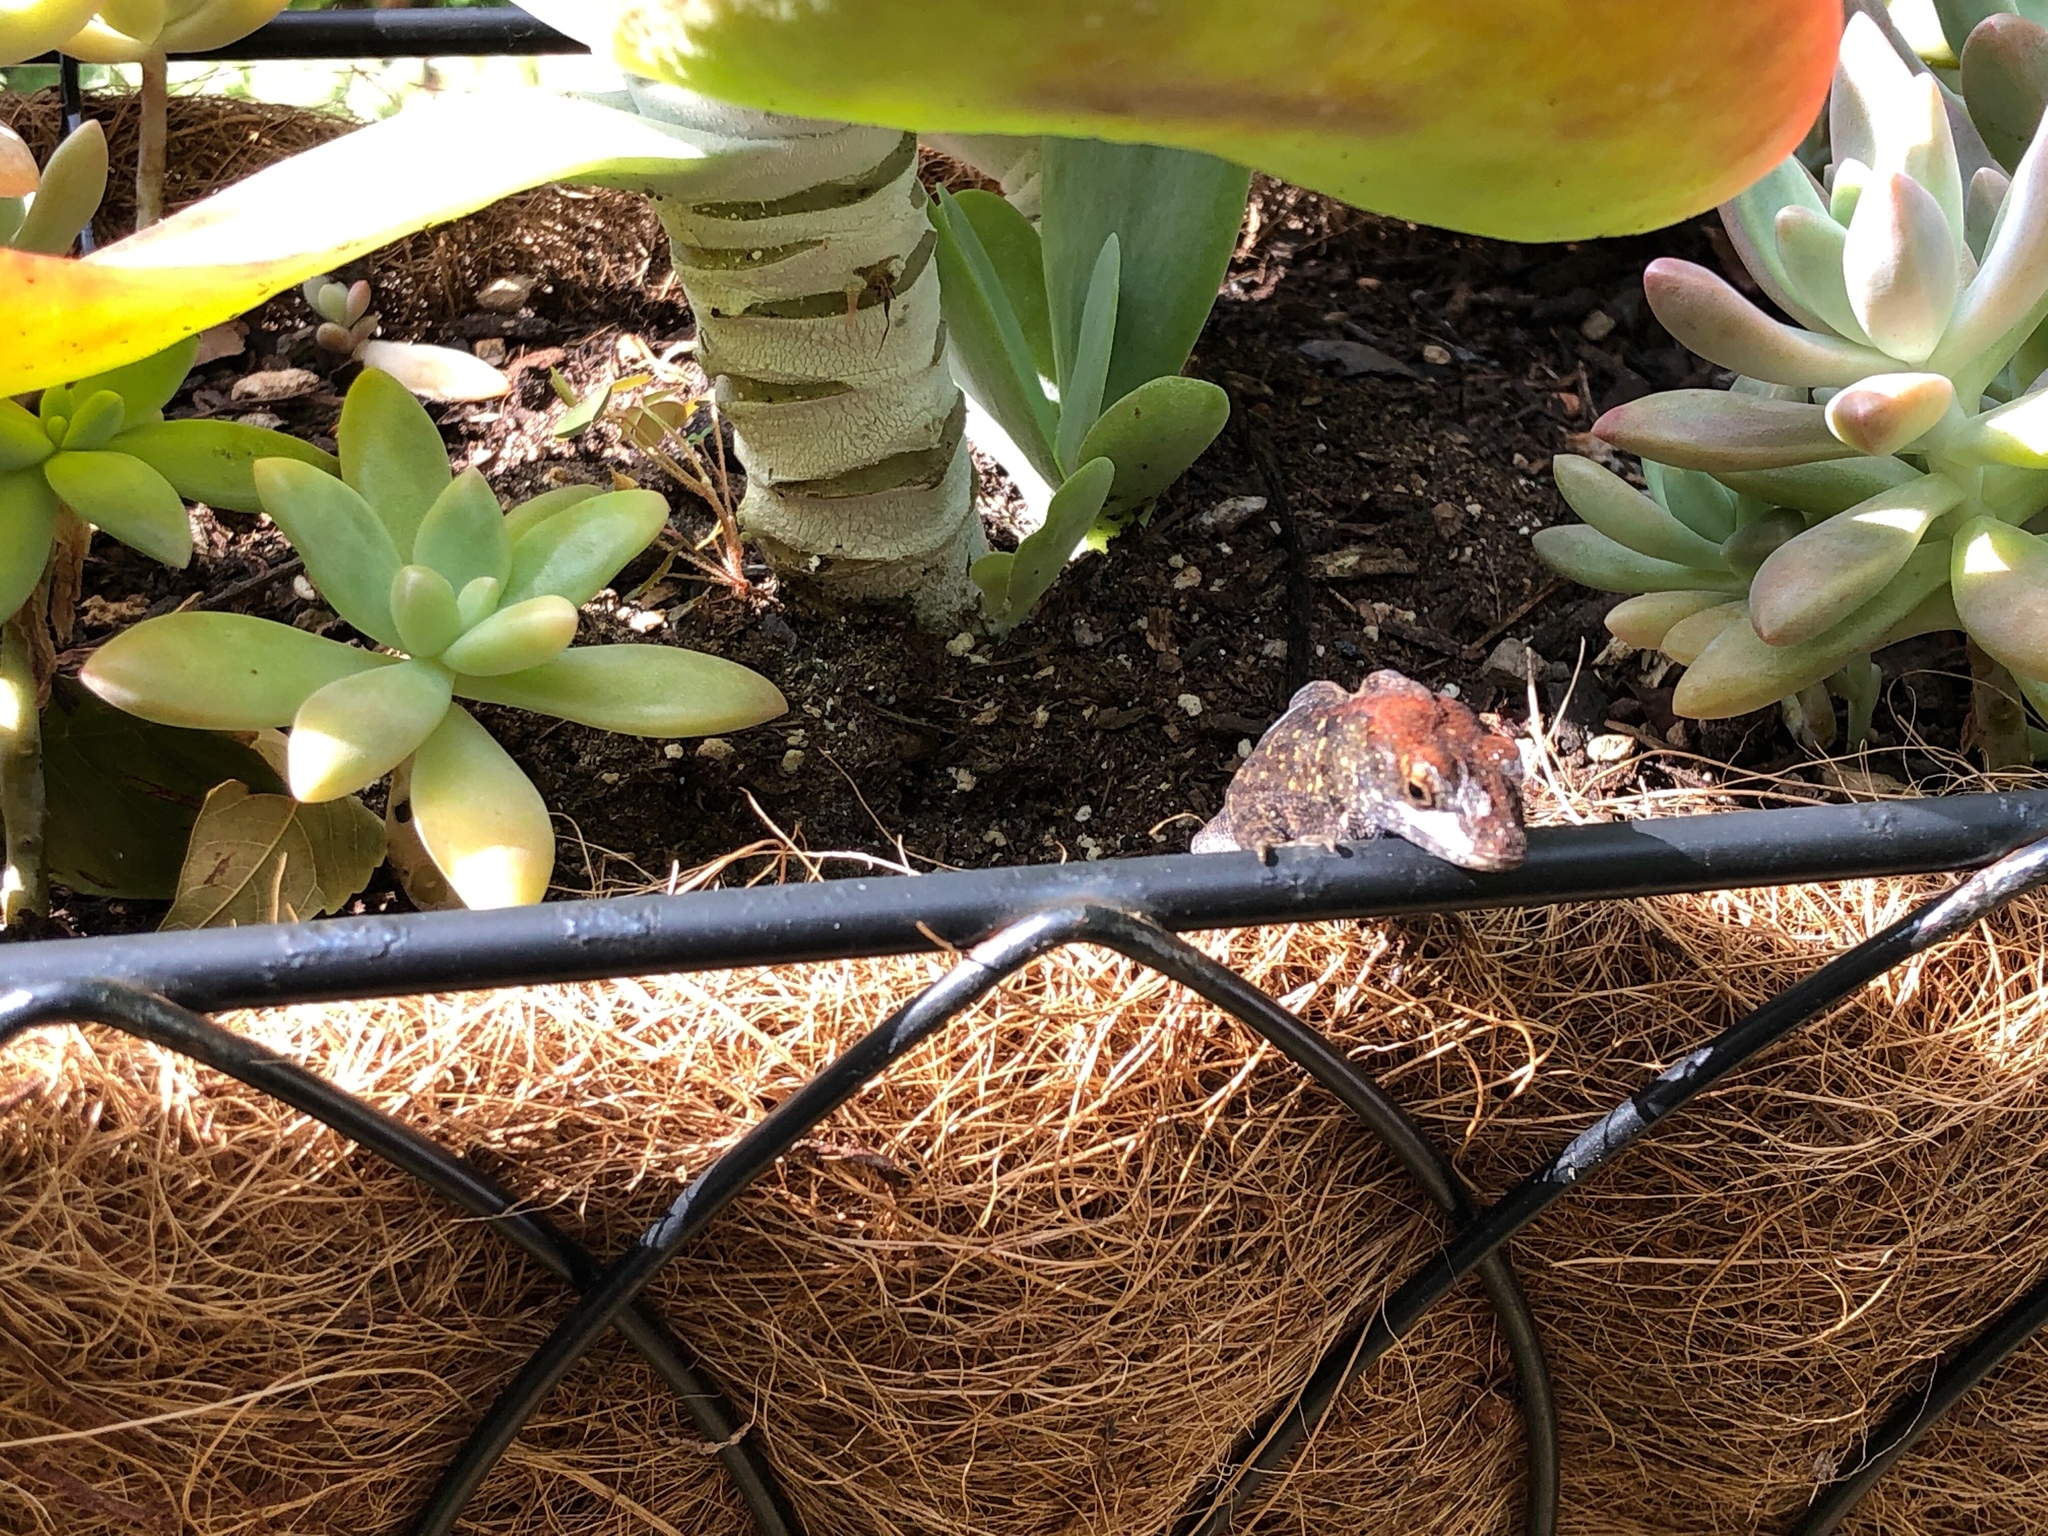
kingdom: Animalia
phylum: Chordata
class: Squamata
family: Dactyloidae
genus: Anolis
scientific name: Anolis sagrei
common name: Brown anole
